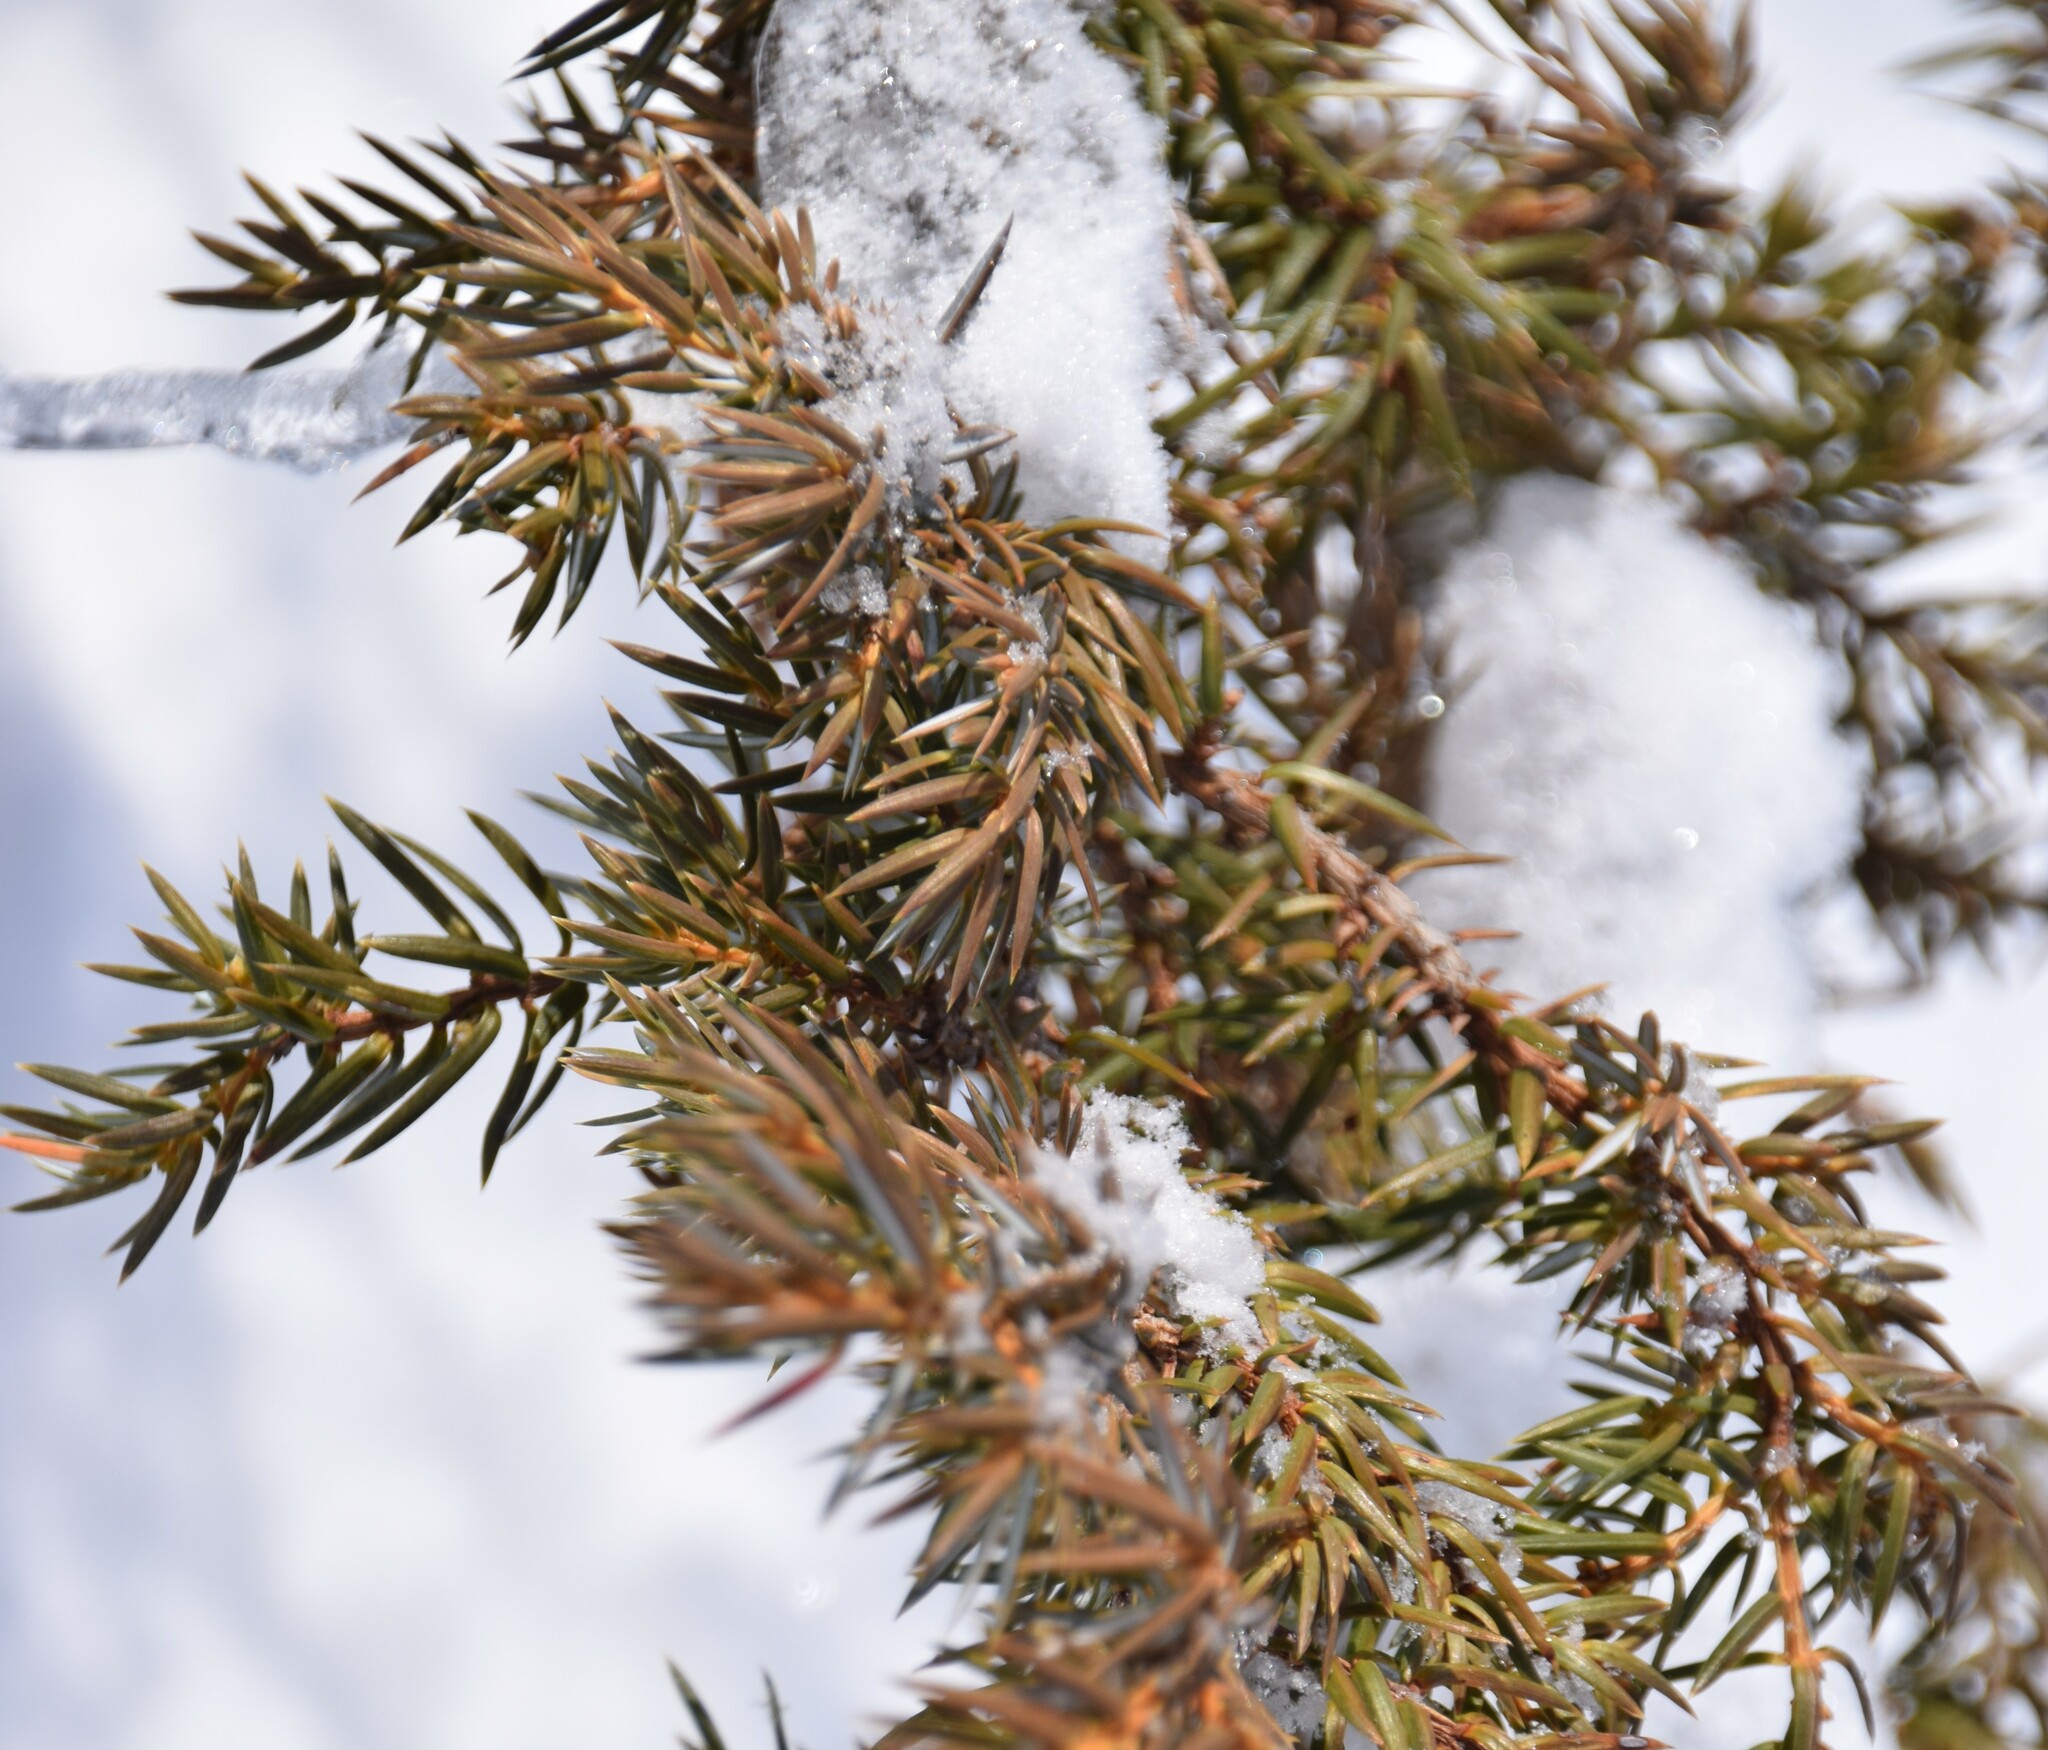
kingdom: Plantae
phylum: Tracheophyta
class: Pinopsida
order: Pinales
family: Cupressaceae
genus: Juniperus
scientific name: Juniperus communis
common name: Common juniper
